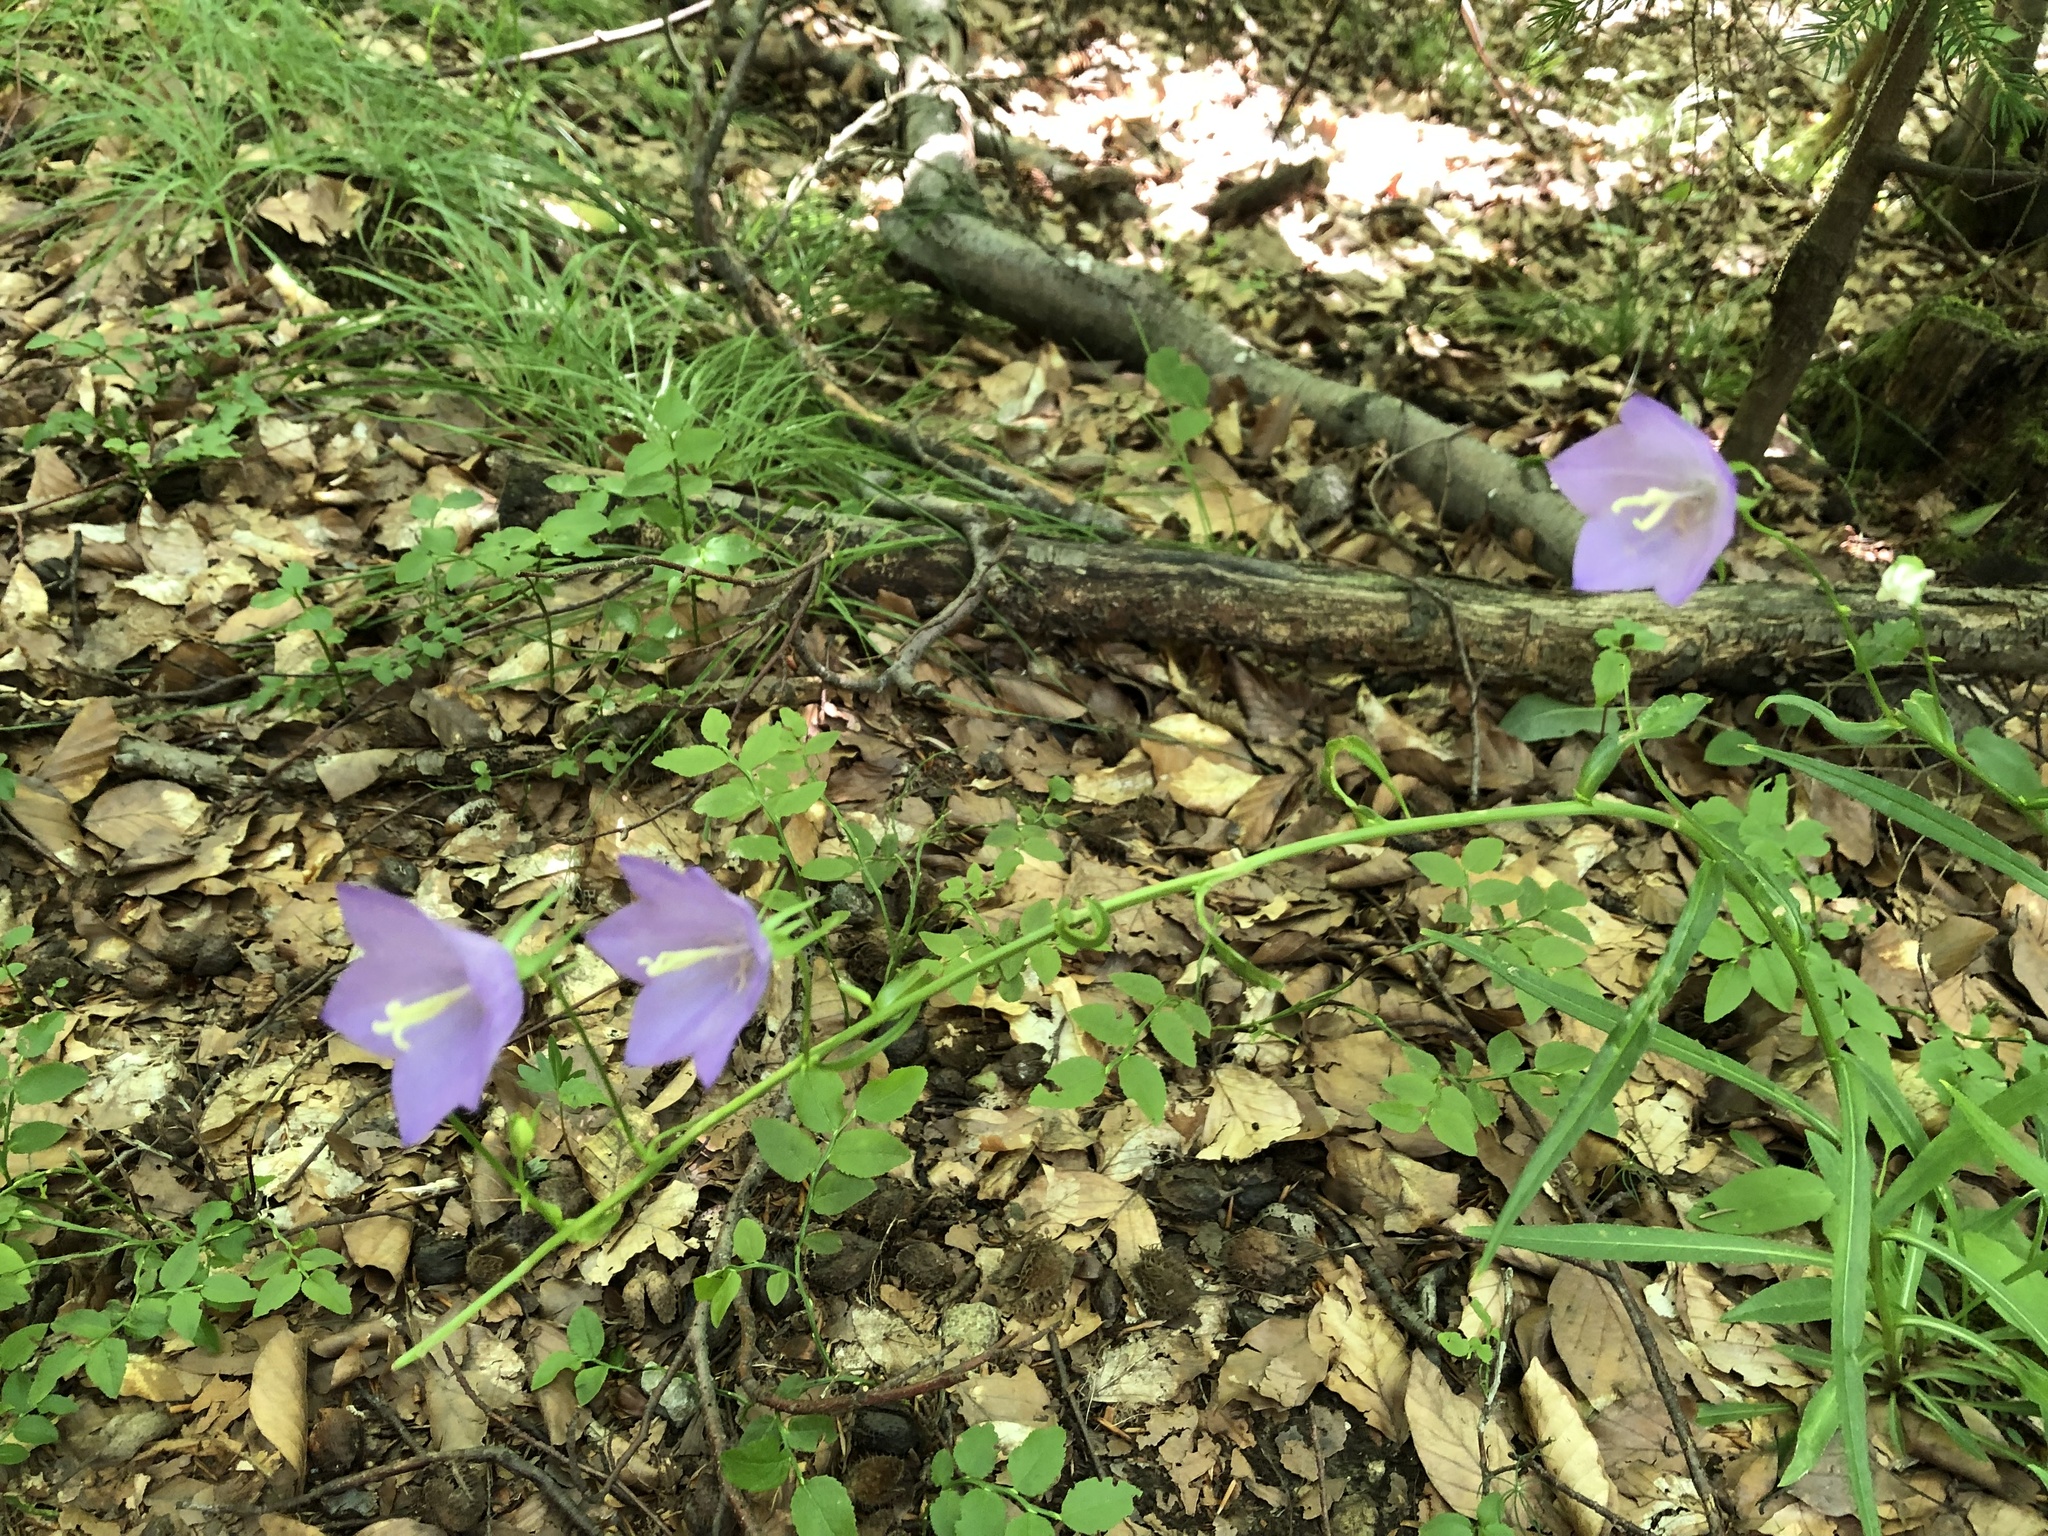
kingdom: Plantae
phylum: Tracheophyta
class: Magnoliopsida
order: Asterales
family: Campanulaceae
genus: Campanula
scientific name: Campanula persicifolia
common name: Peach-leaved bellflower
